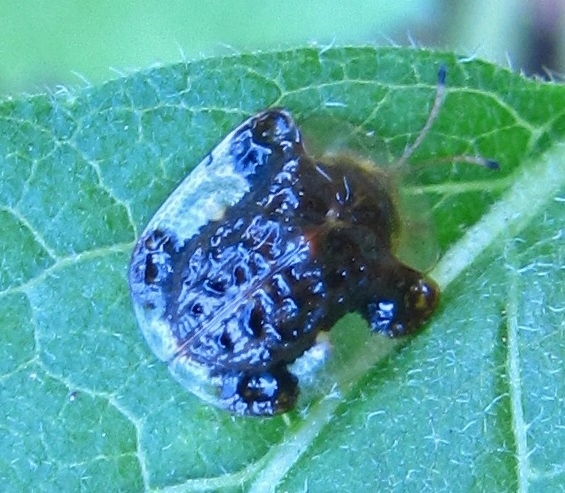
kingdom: Animalia
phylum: Arthropoda
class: Insecta
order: Coleoptera
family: Chrysomelidae
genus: Helocassis
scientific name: Helocassis clavata
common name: Clavate tortoise beetle
